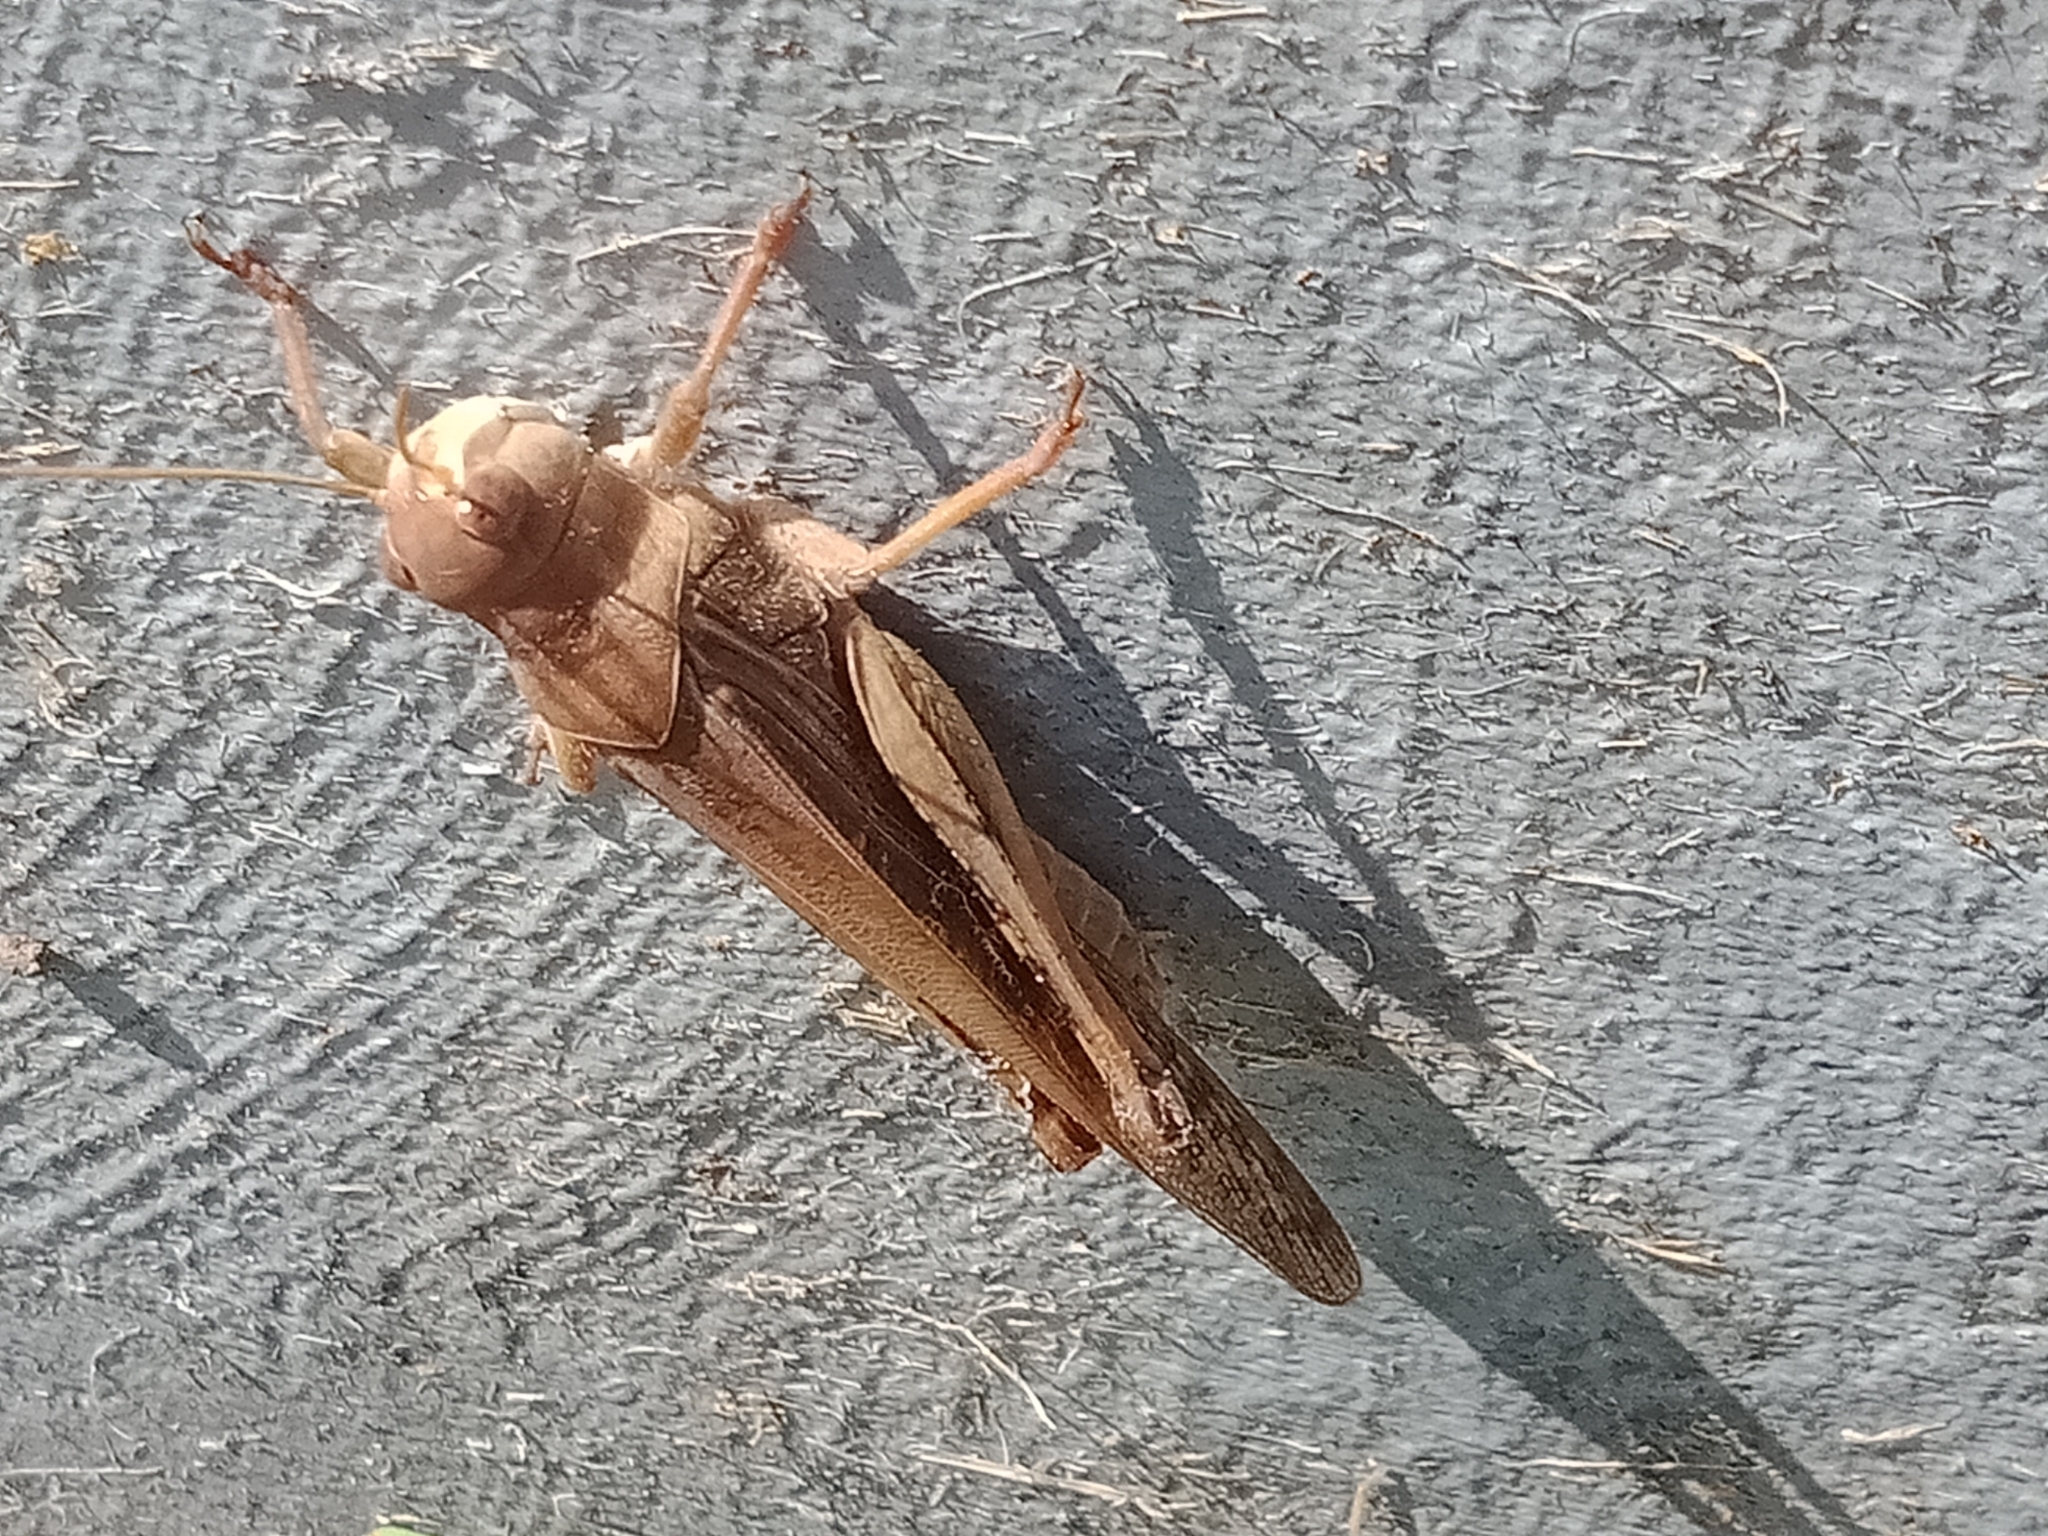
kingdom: Animalia
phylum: Arthropoda
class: Insecta
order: Orthoptera
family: Acrididae
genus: Locusta
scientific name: Locusta migratoria
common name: Migratory locust
